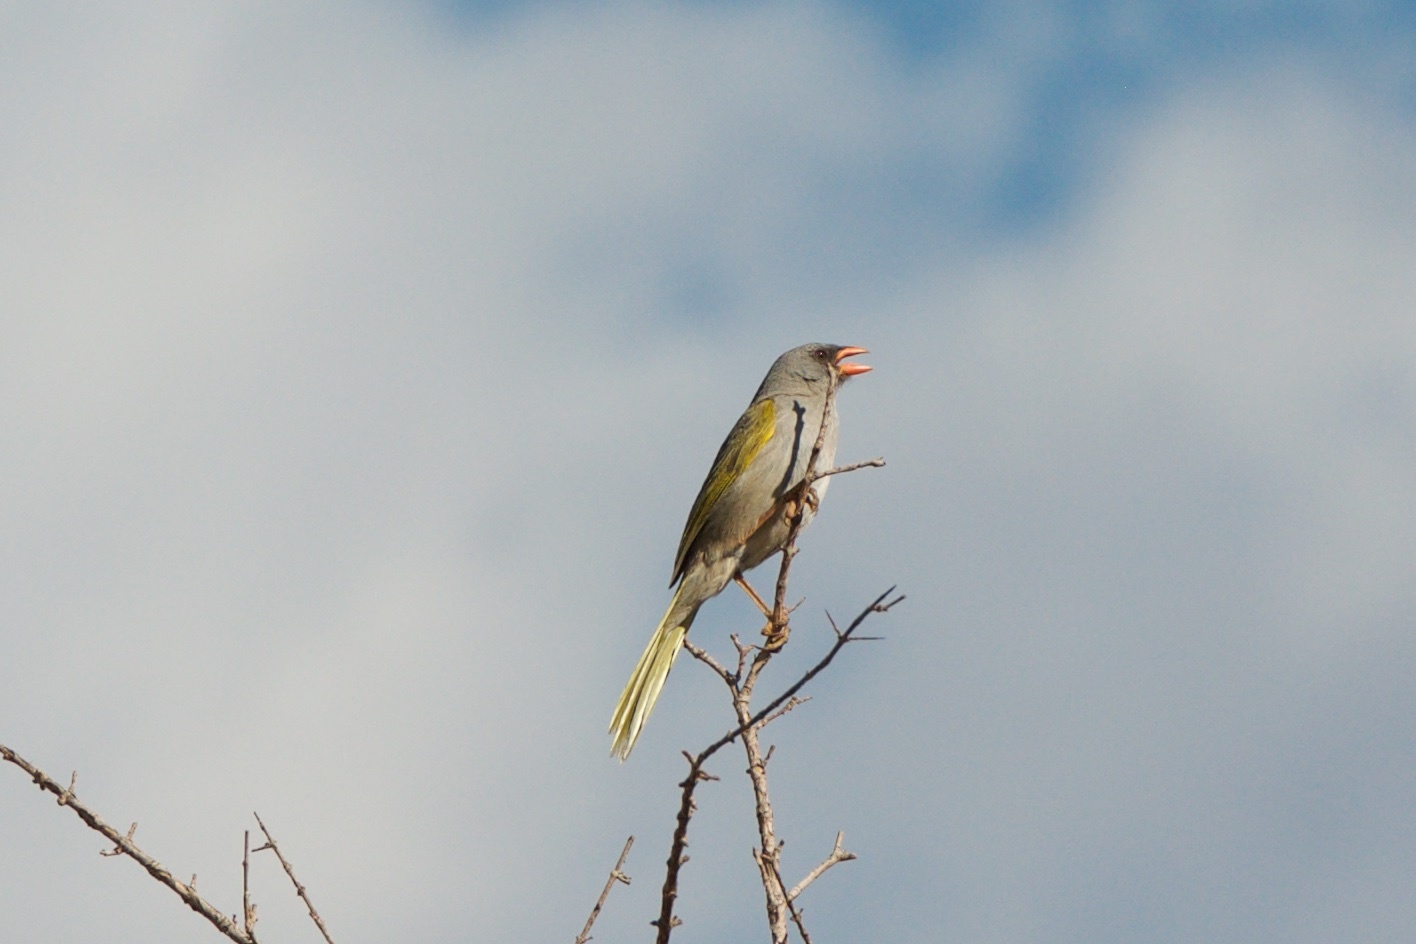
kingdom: Animalia
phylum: Chordata
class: Aves
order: Passeriformes
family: Thraupidae
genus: Embernagra
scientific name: Embernagra platensis
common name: Pampa finch
